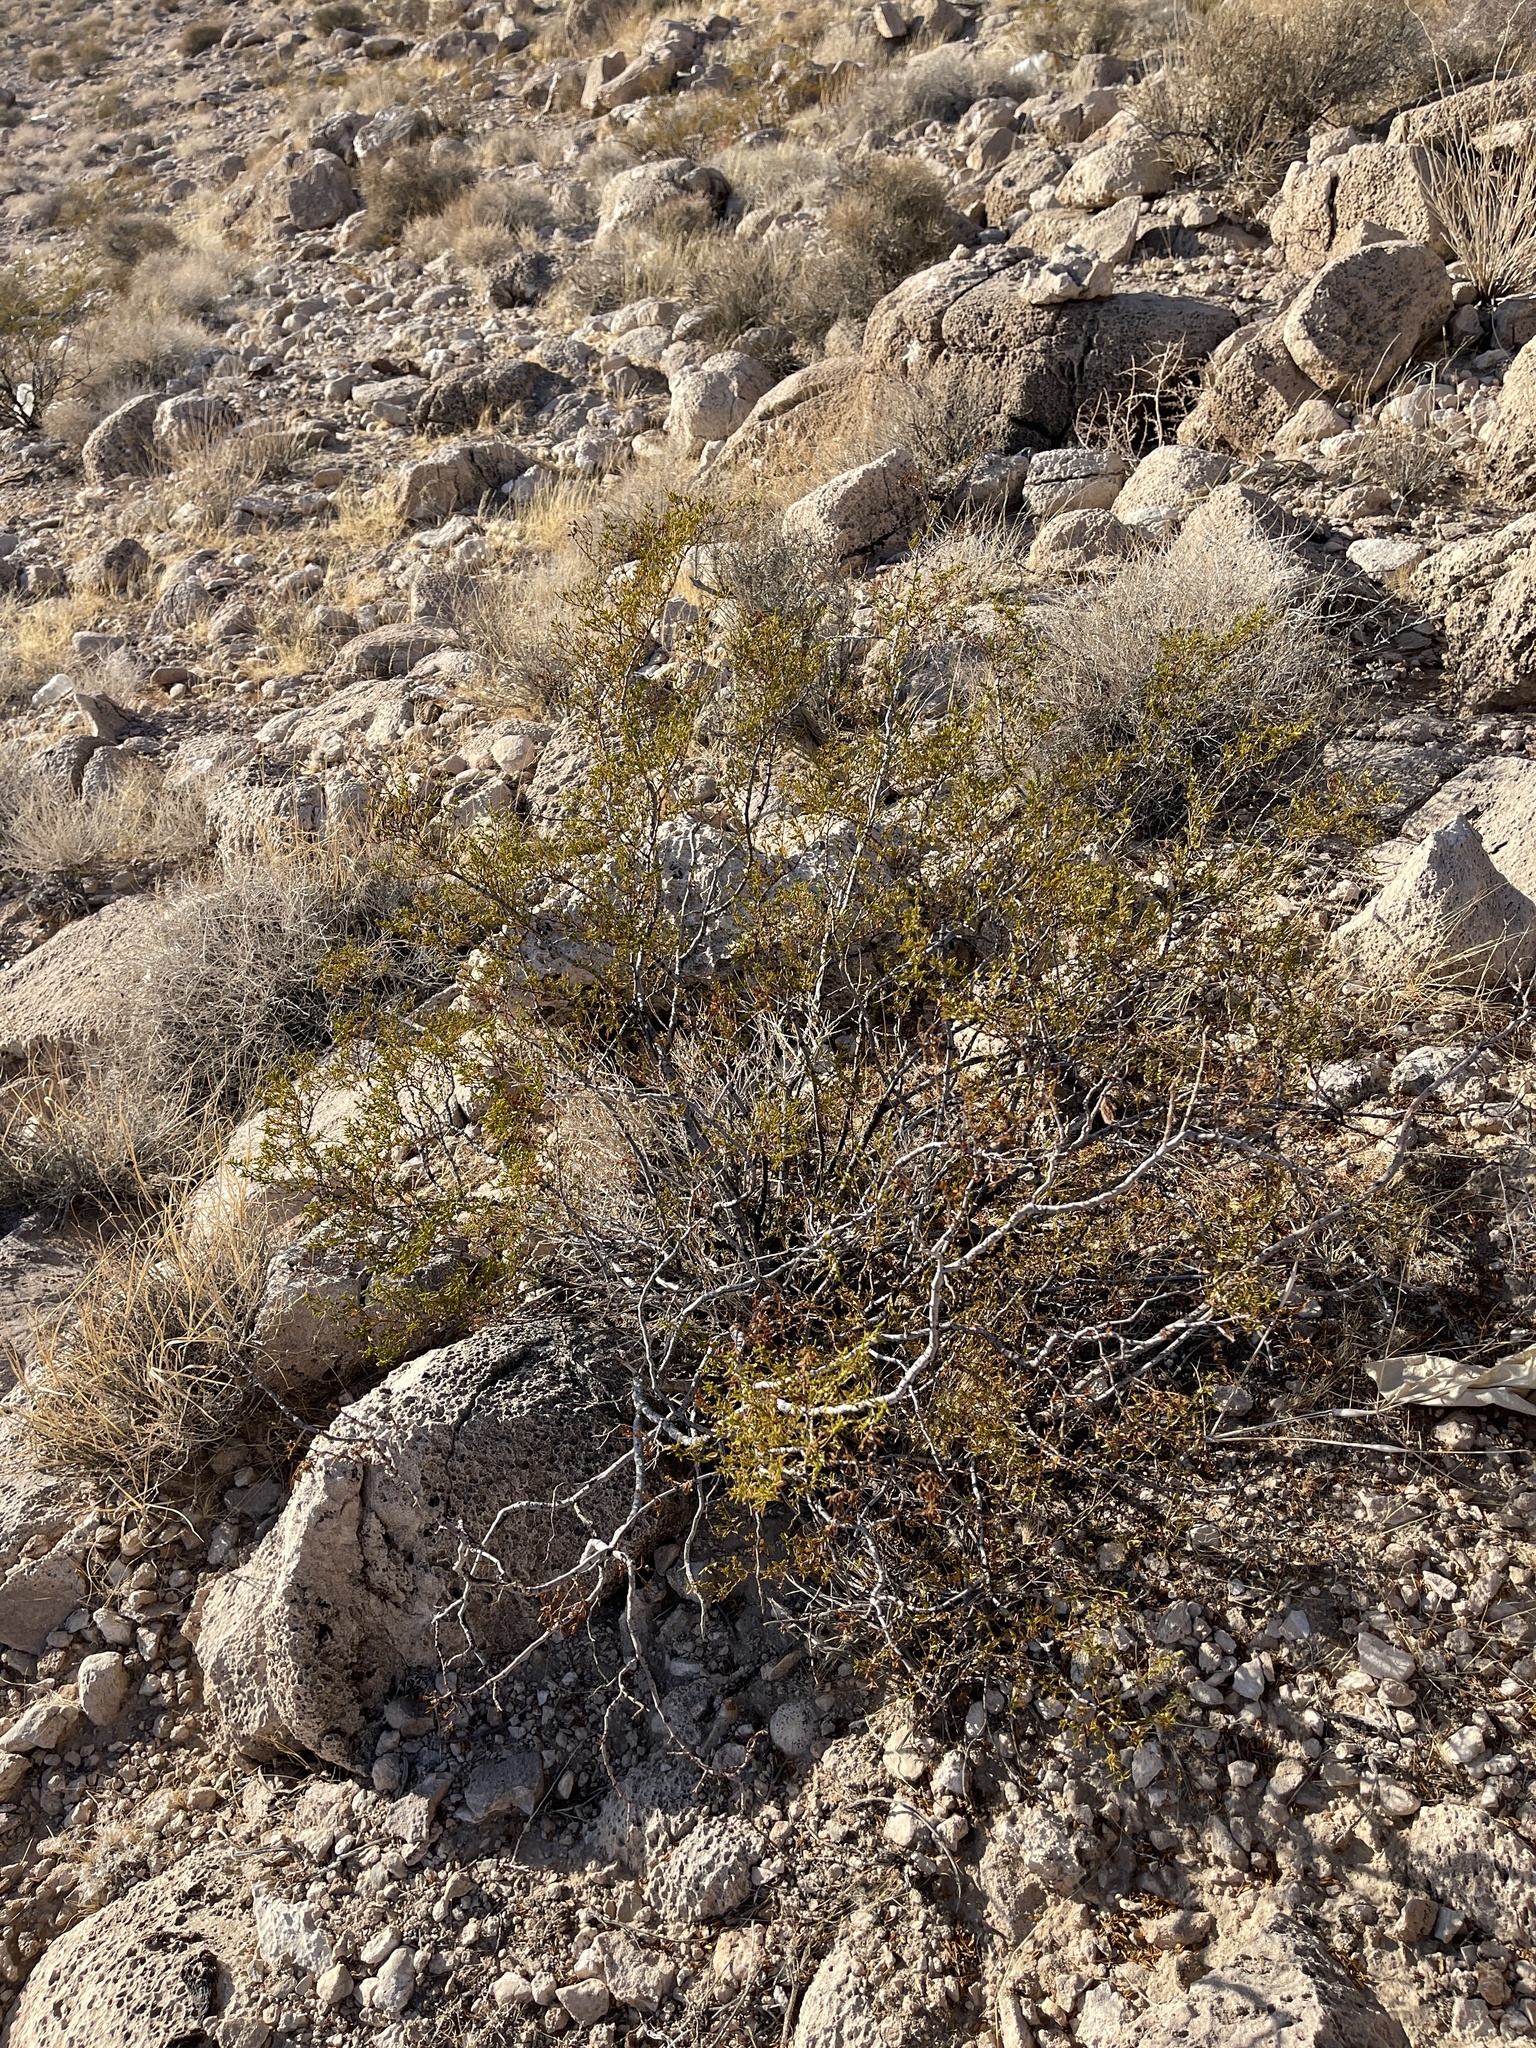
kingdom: Plantae
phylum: Tracheophyta
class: Magnoliopsida
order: Zygophyllales
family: Zygophyllaceae
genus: Larrea
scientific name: Larrea tridentata
